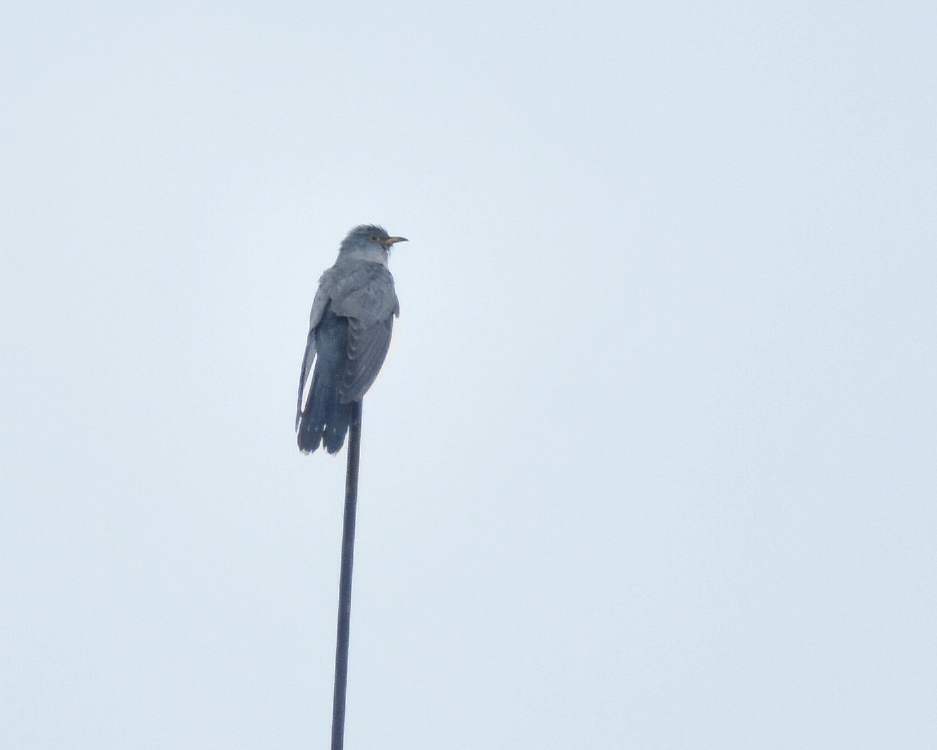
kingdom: Animalia
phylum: Chordata
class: Aves
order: Cuculiformes
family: Cuculidae
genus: Cuculus
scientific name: Cuculus canorus
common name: Common cuckoo
